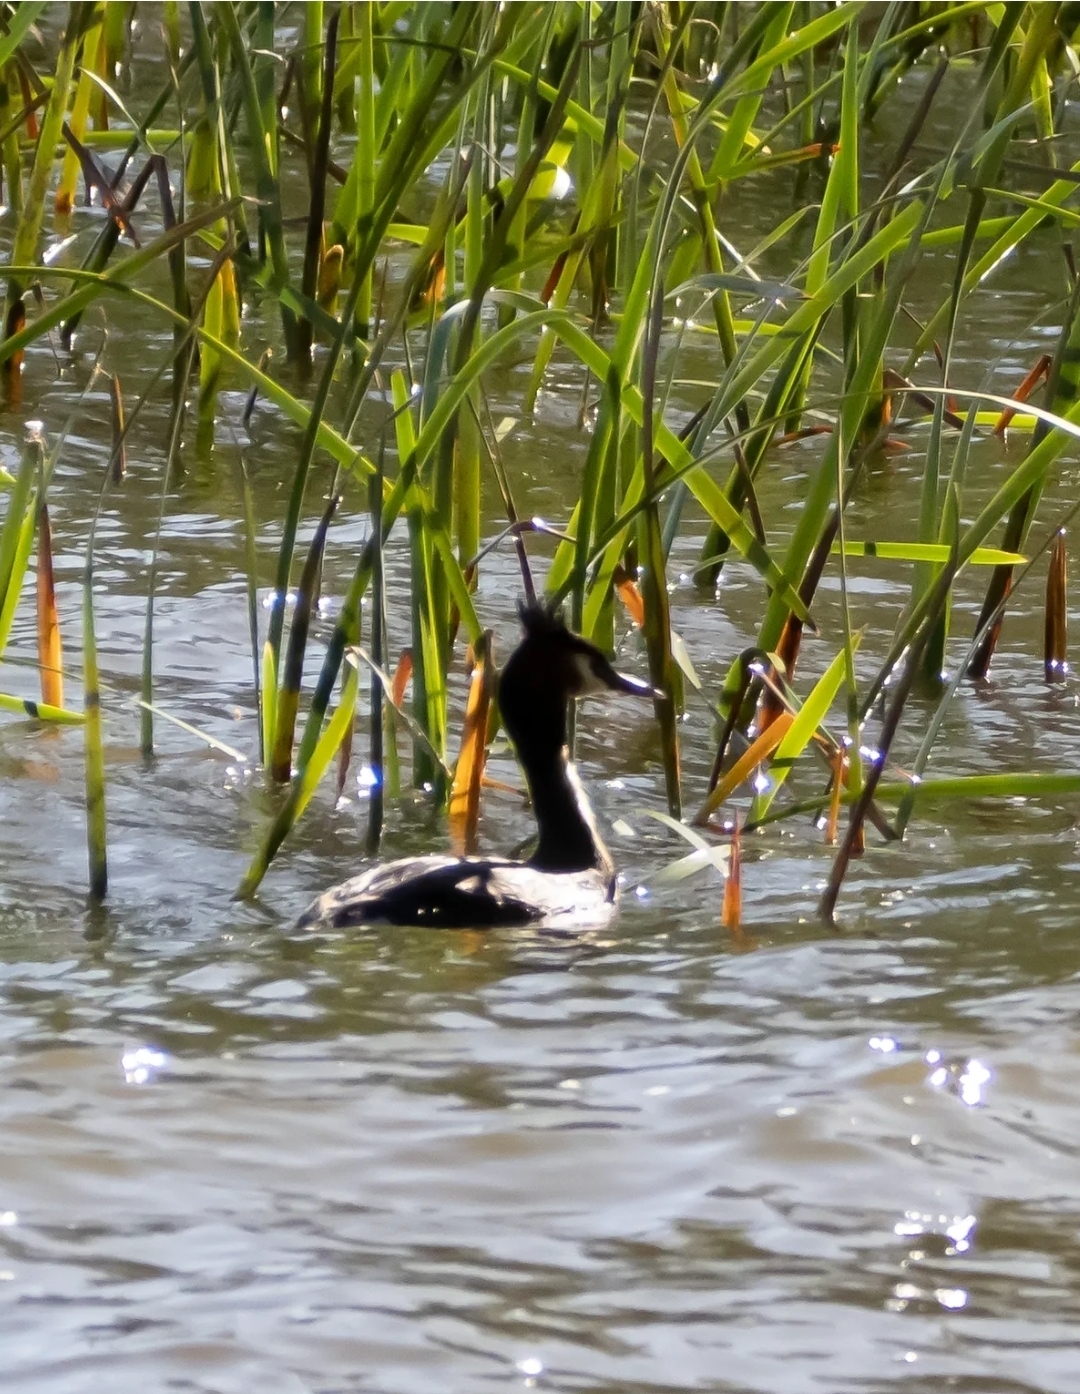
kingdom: Animalia
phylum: Chordata
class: Aves
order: Podicipediformes
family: Podicipedidae
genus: Podiceps
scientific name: Podiceps cristatus
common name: Great crested grebe
